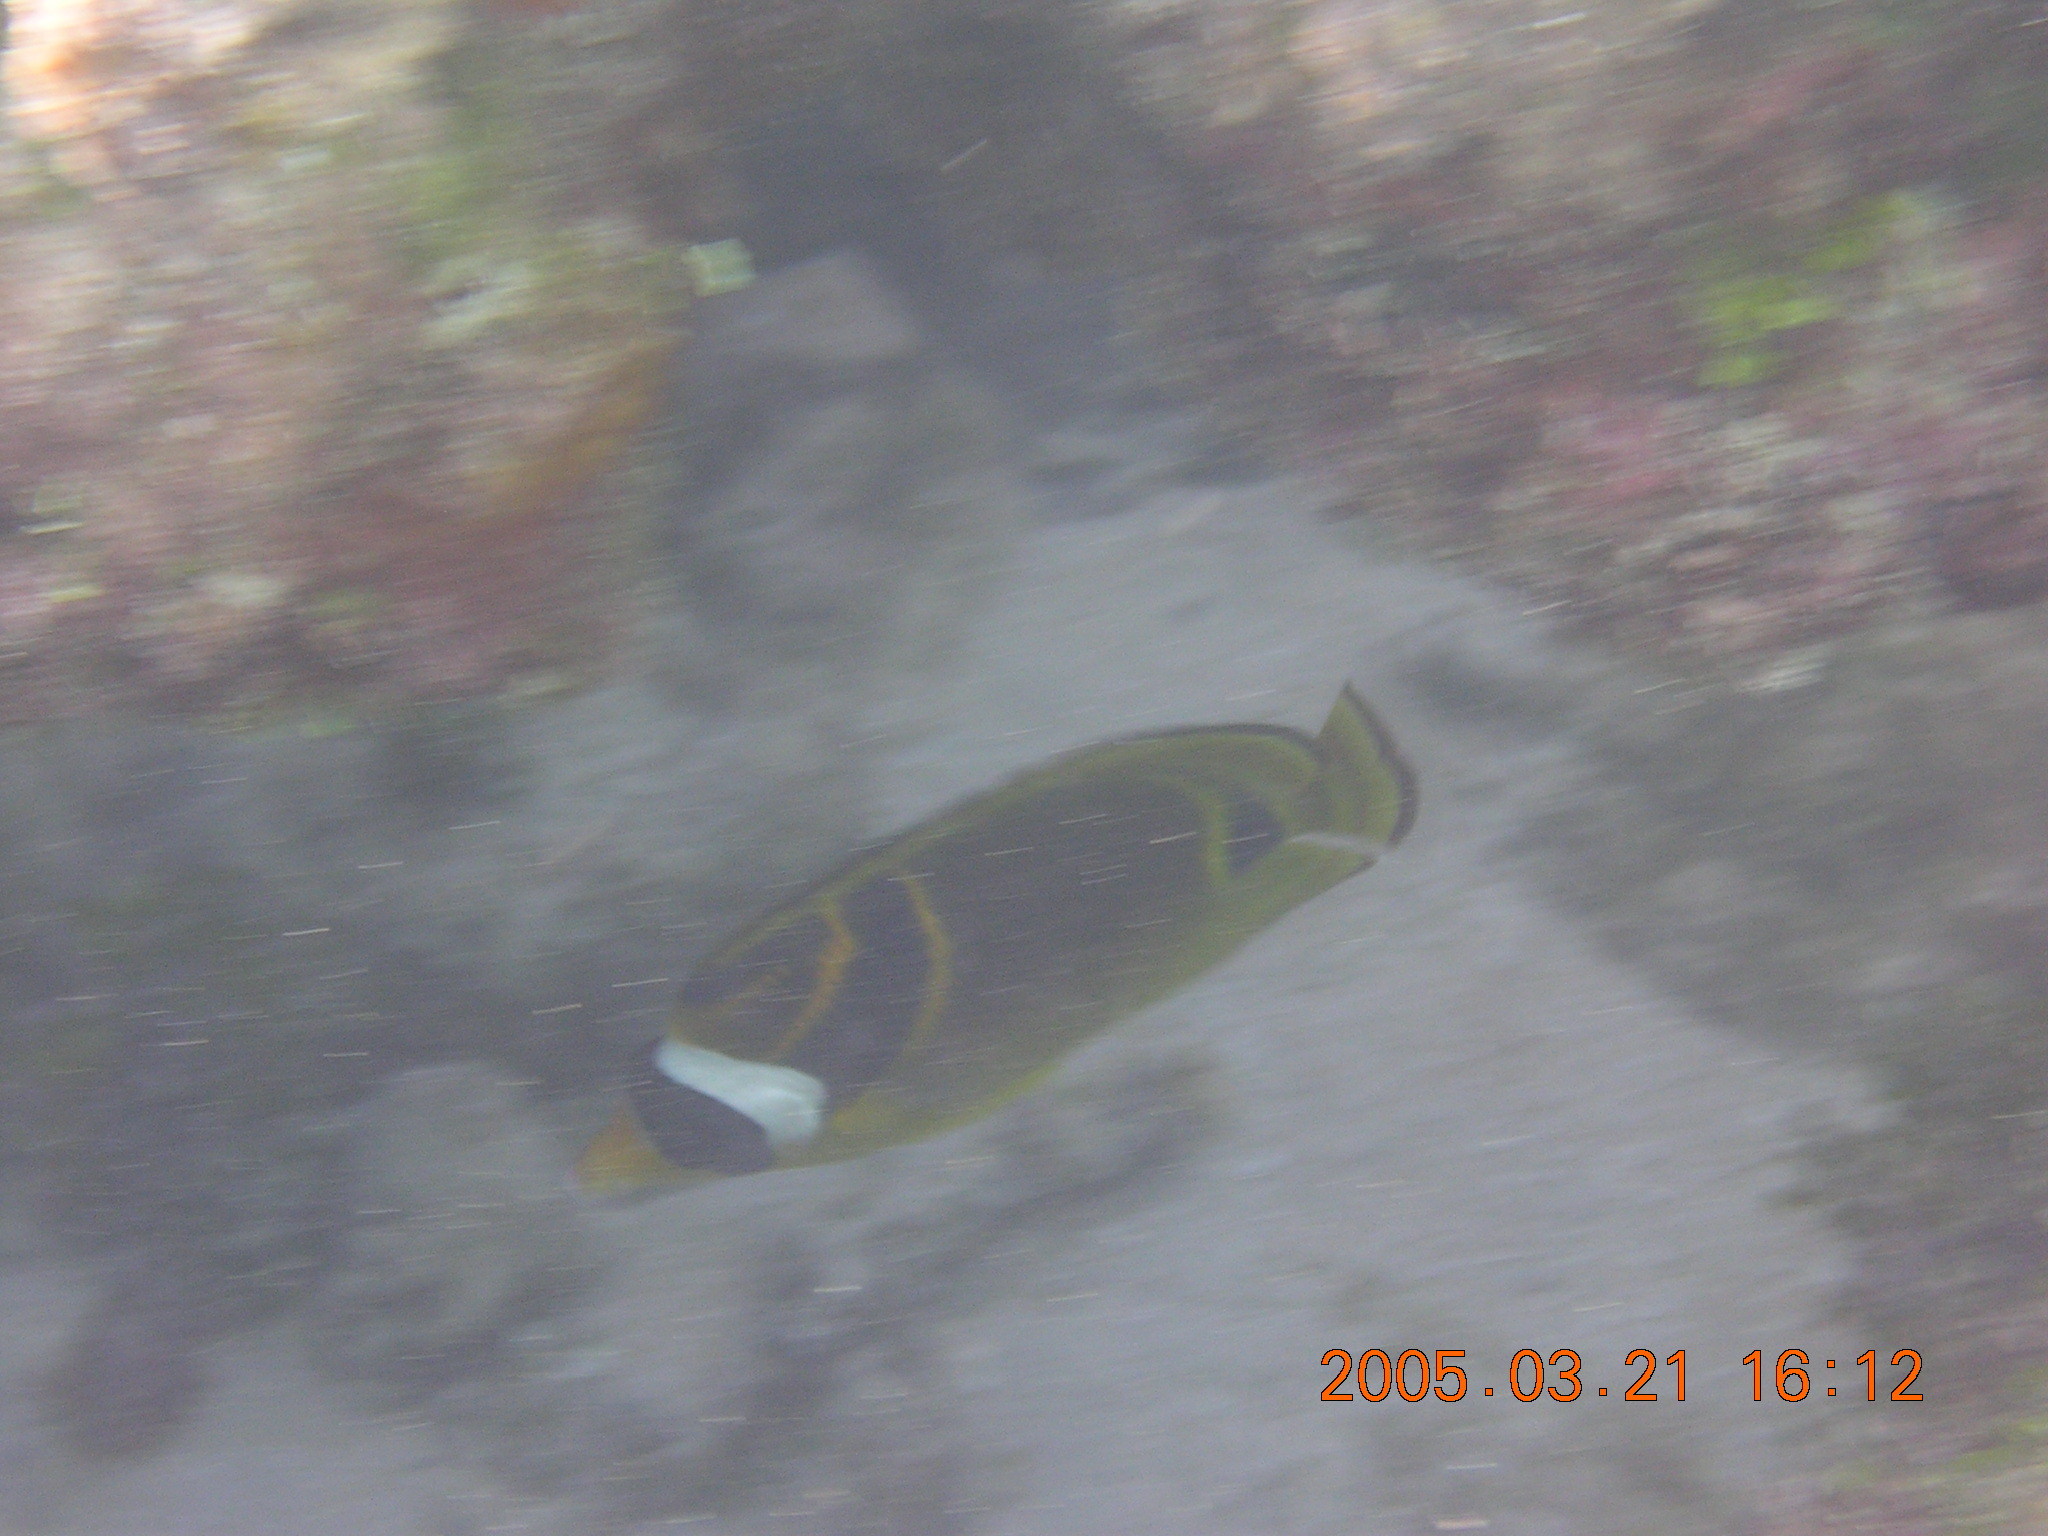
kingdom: Animalia
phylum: Chordata
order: Perciformes
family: Chaetodontidae
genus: Chaetodon
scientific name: Chaetodon lunula
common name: Raccoon butterflyfish
